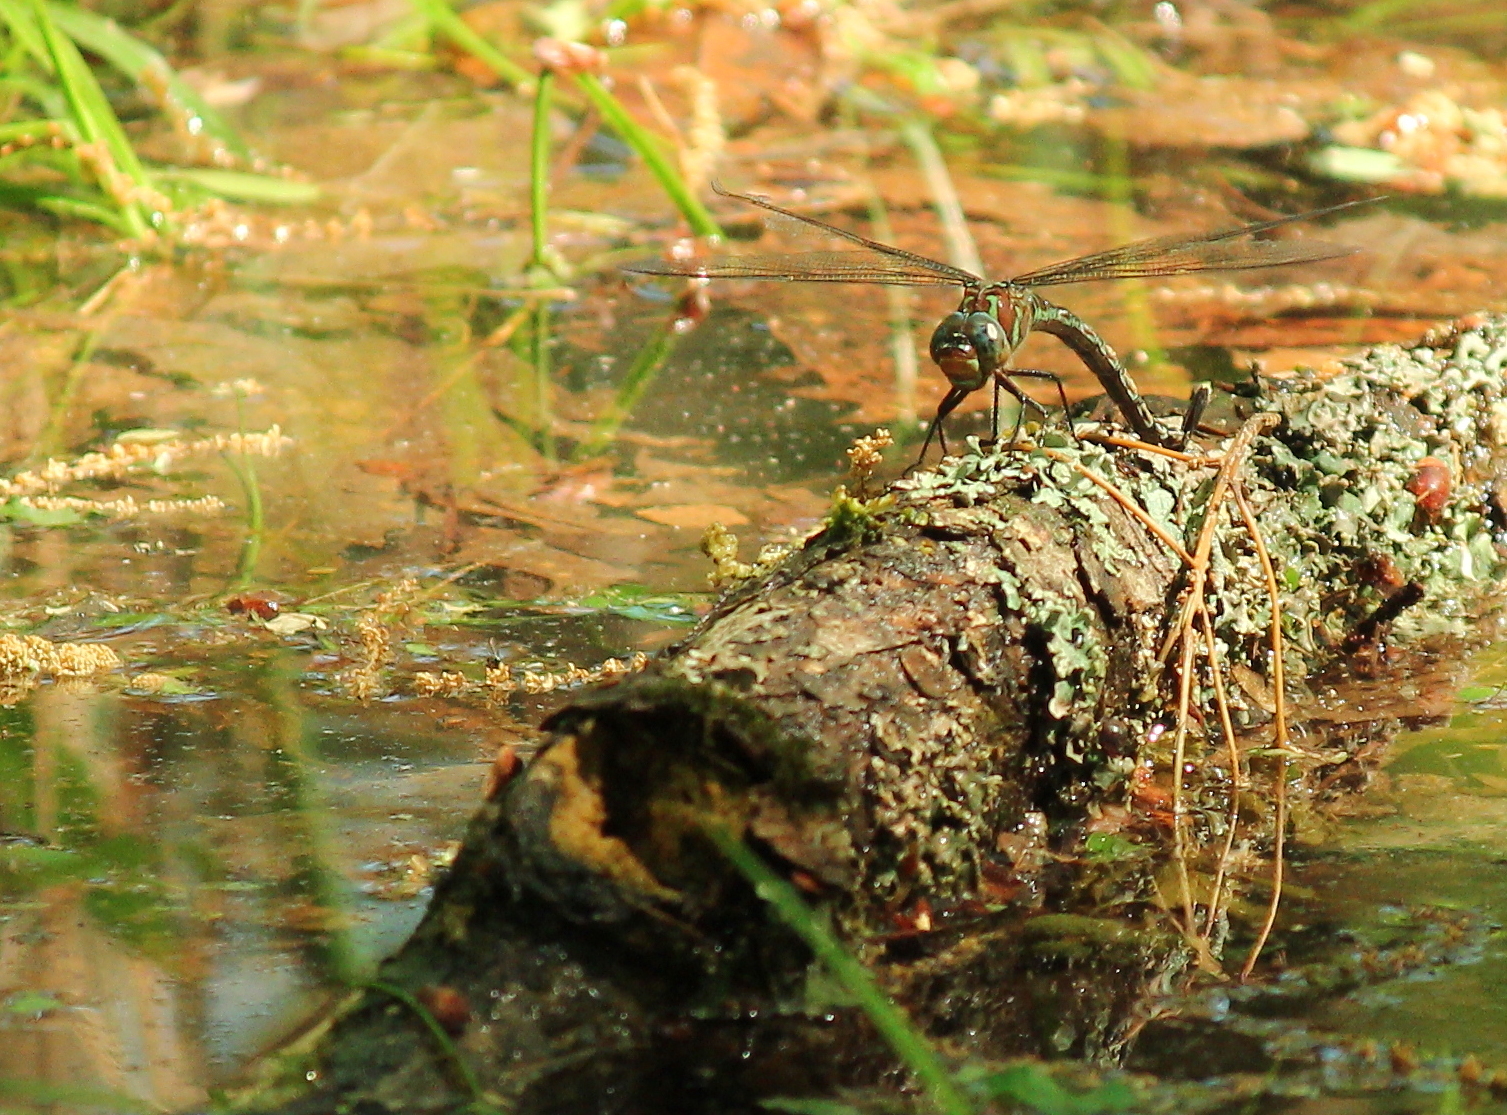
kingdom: Animalia
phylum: Arthropoda
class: Insecta
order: Odonata
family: Aeshnidae
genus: Epiaeschna
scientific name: Epiaeschna heros
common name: Swamp darner
